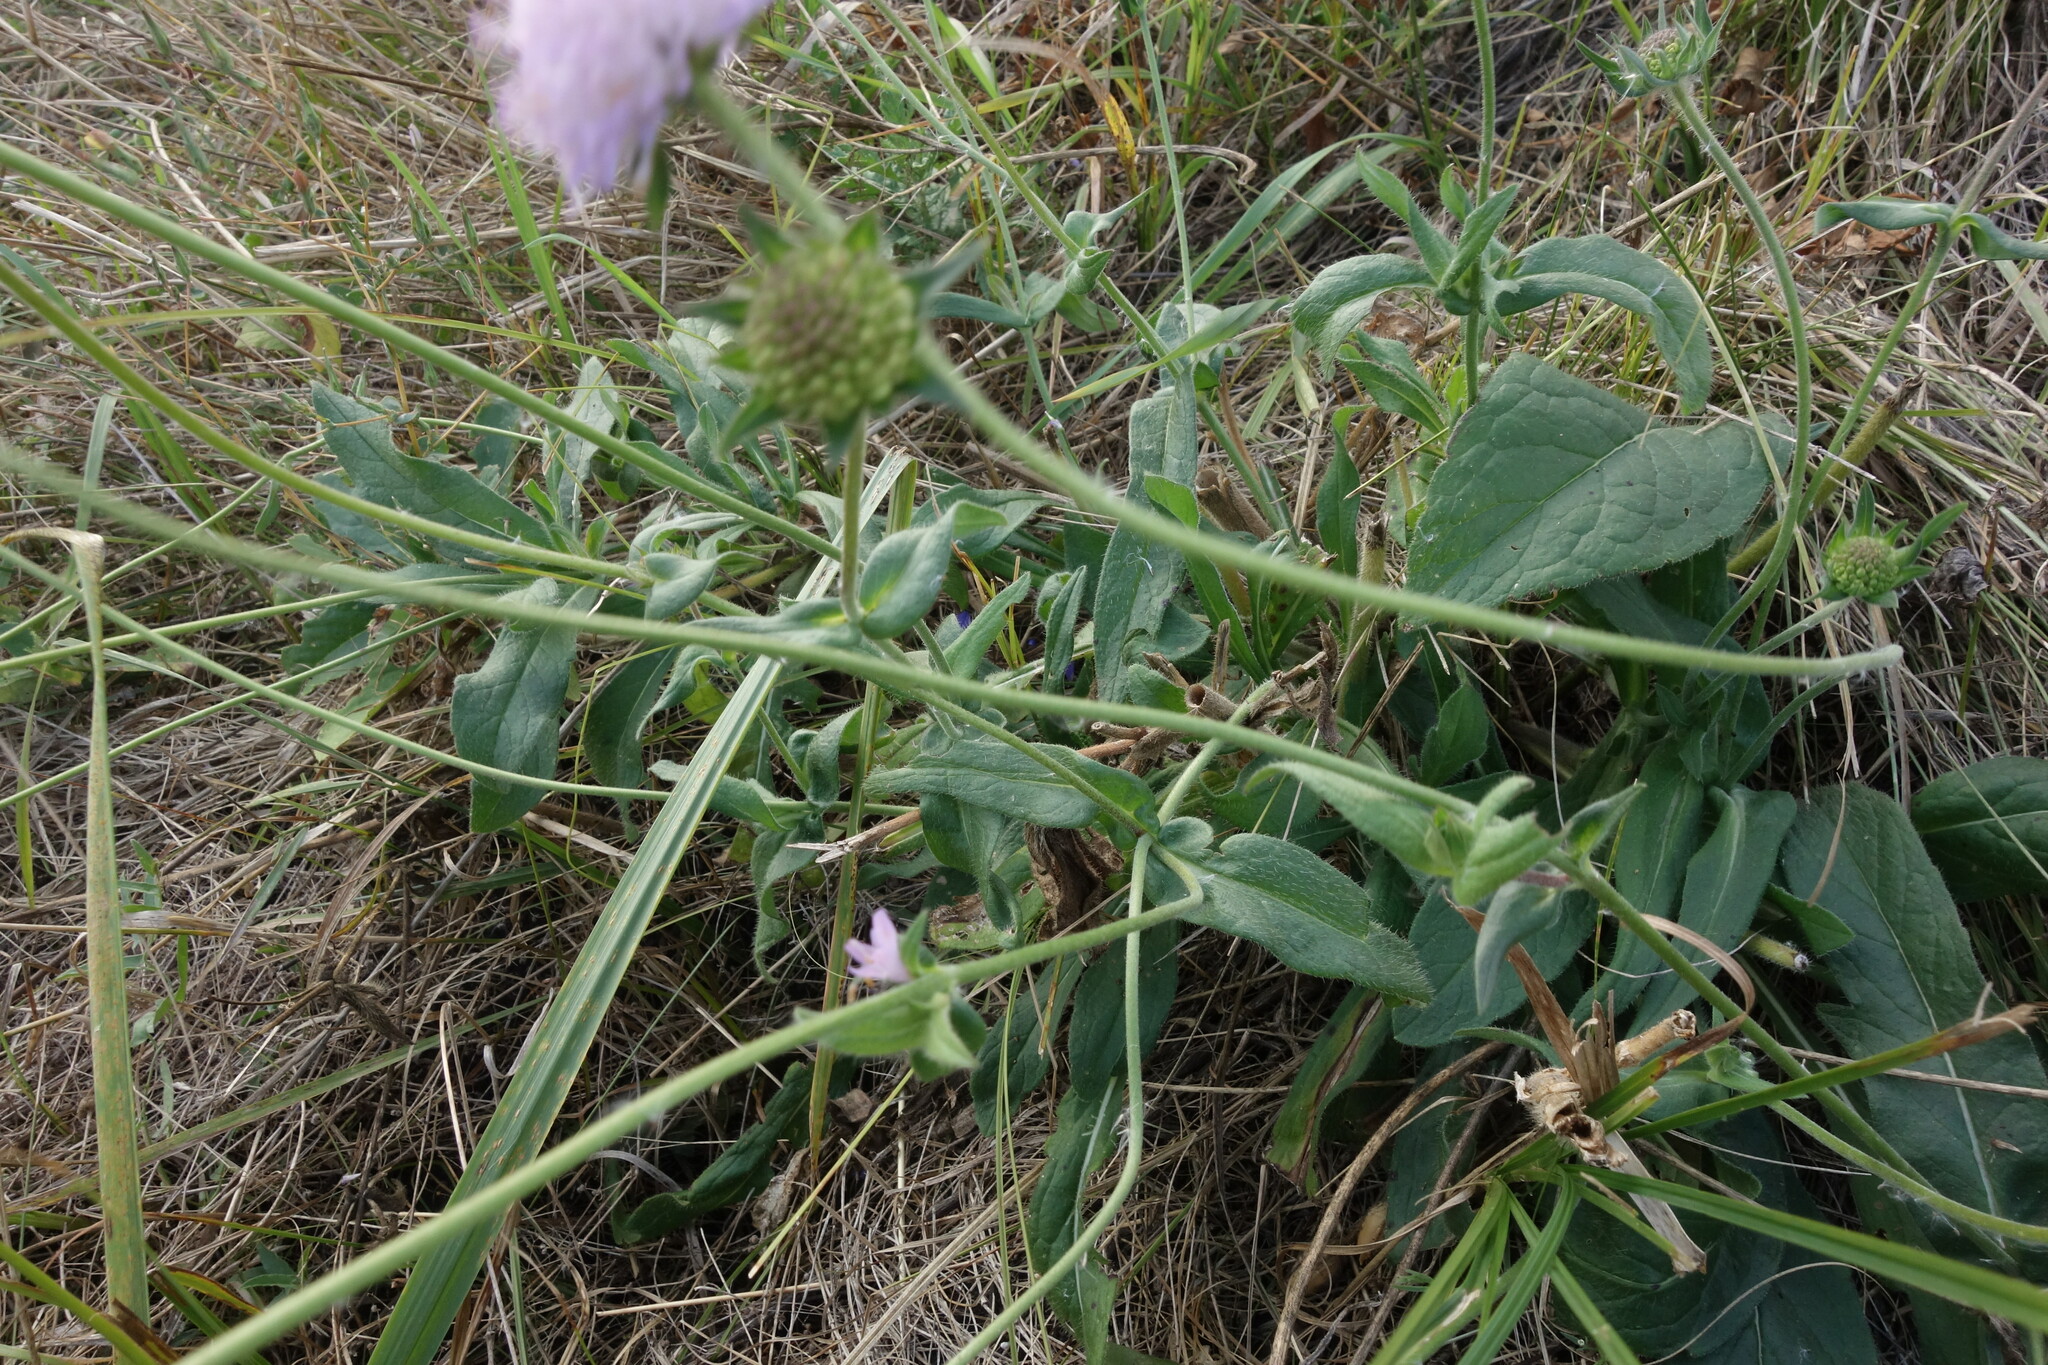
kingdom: Plantae
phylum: Tracheophyta
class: Magnoliopsida
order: Dipsacales
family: Caprifoliaceae
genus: Knautia
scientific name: Knautia arvensis
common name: Field scabiosa
